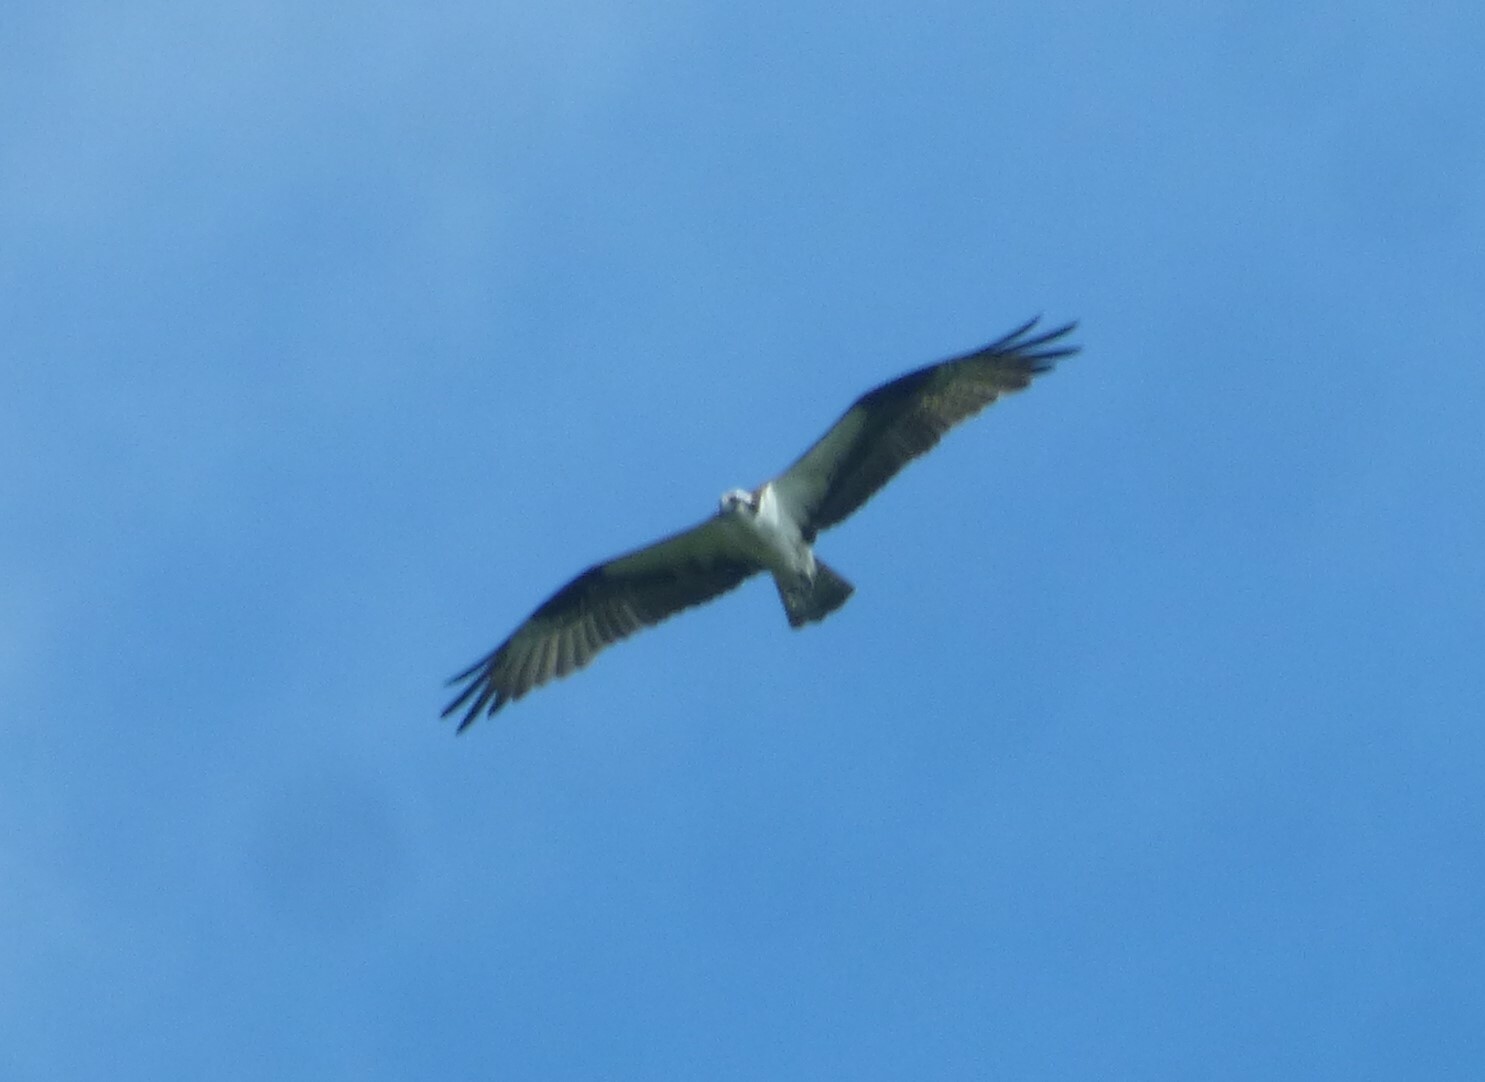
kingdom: Animalia
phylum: Chordata
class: Aves
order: Accipitriformes
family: Pandionidae
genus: Pandion
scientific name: Pandion haliaetus
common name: Osprey
